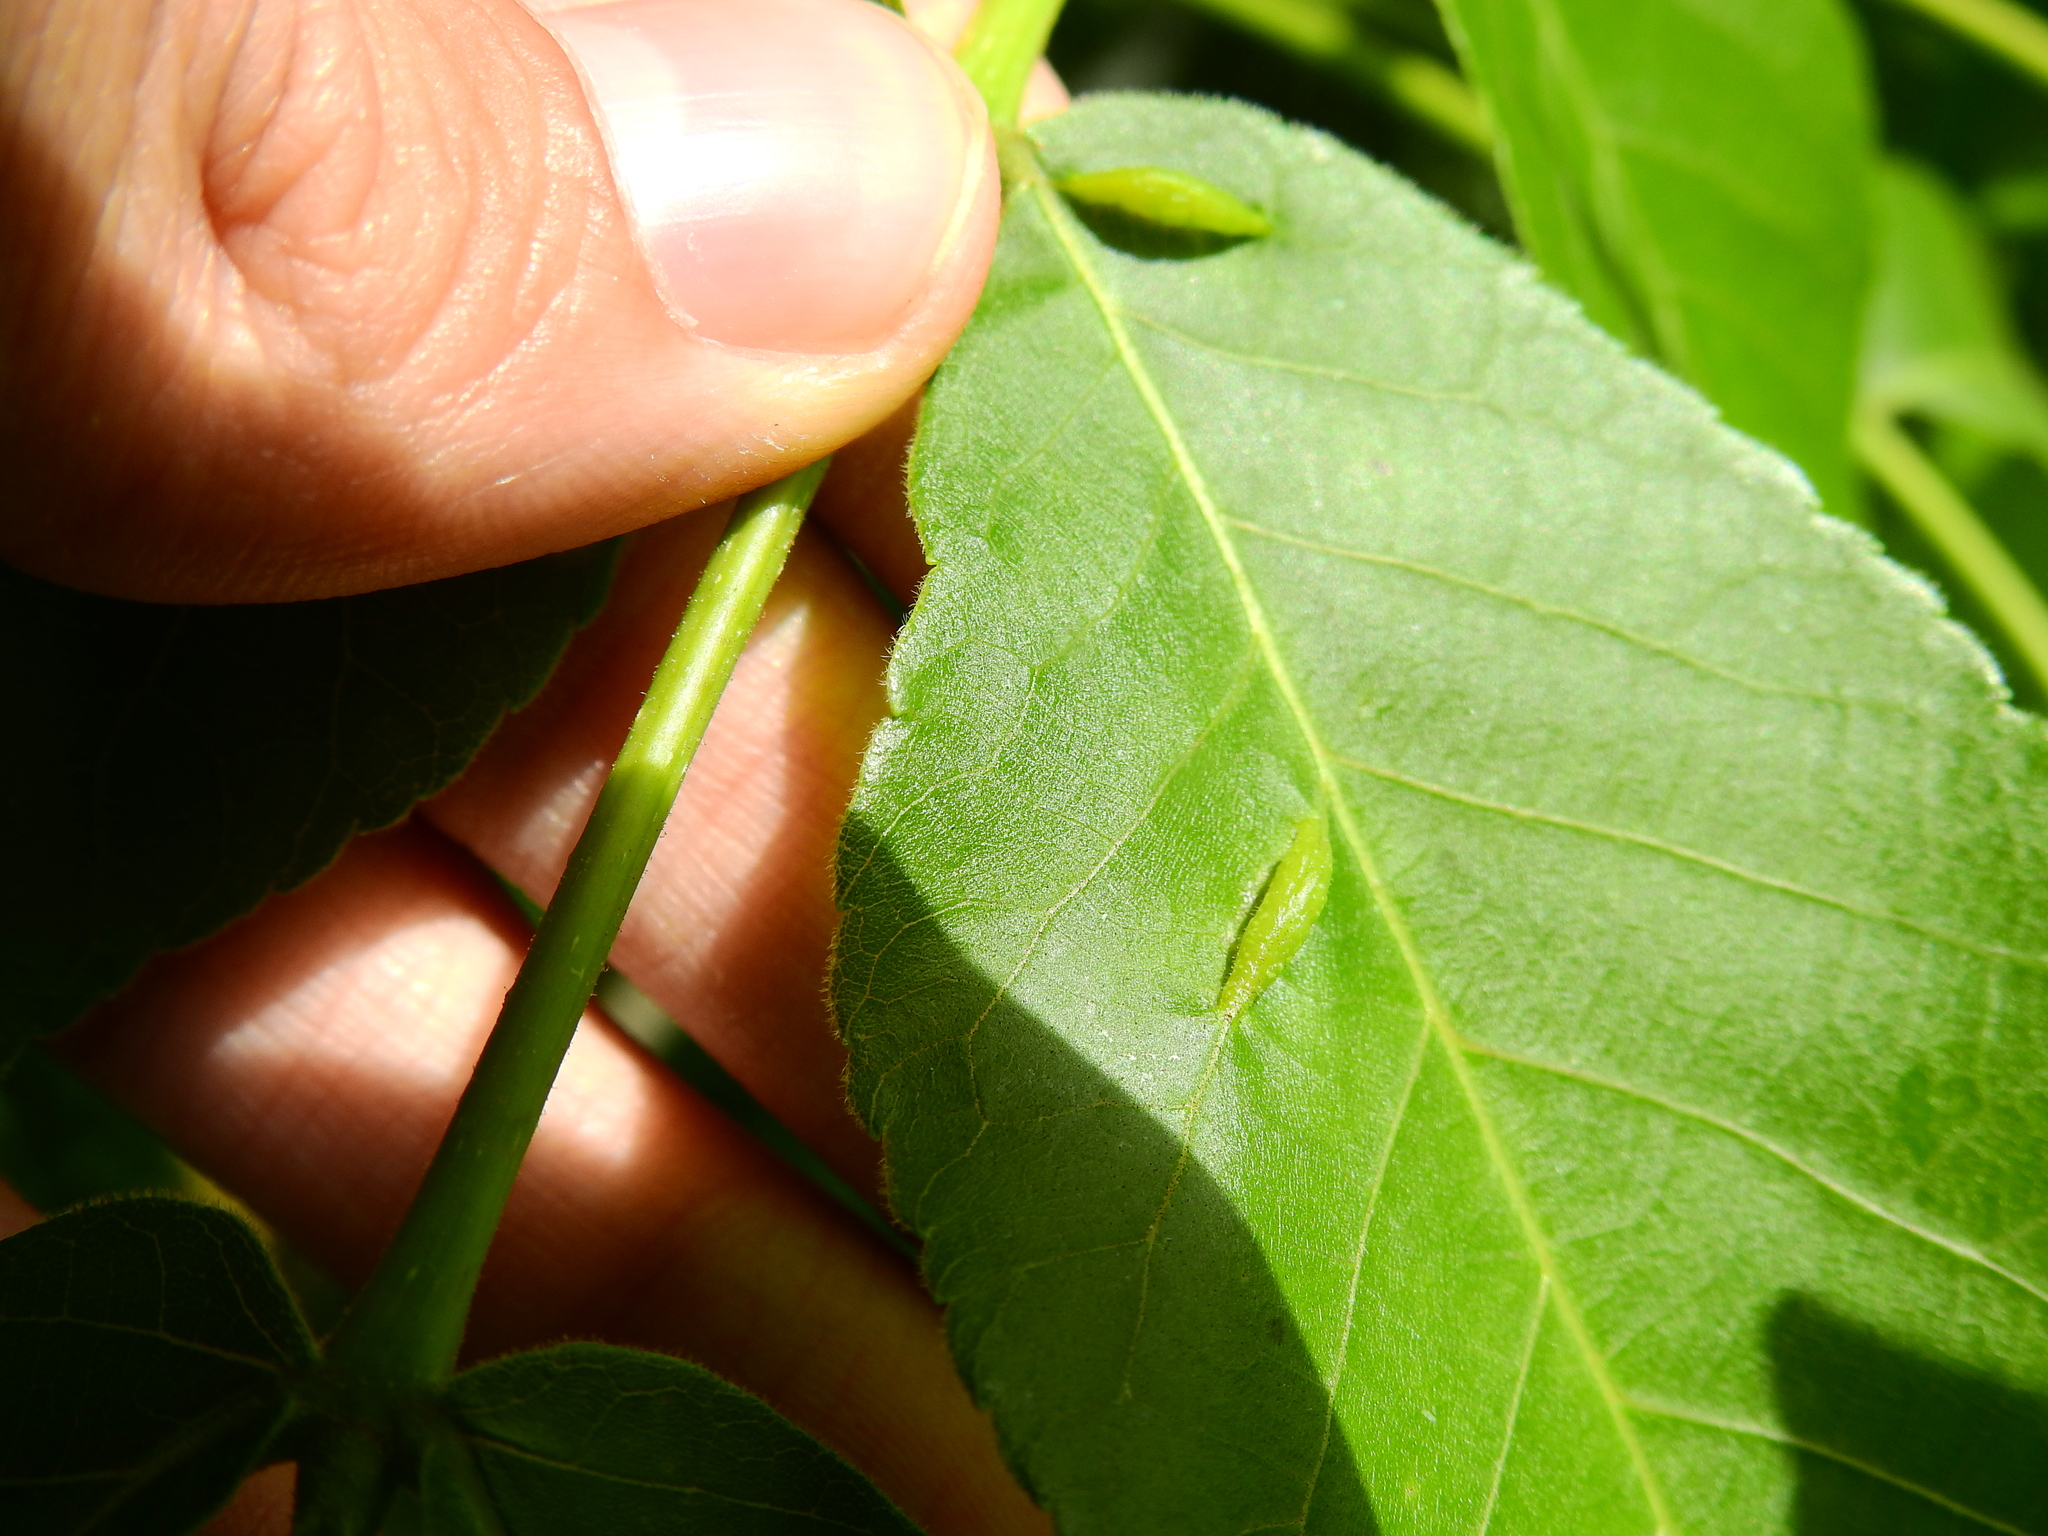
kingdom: Animalia
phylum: Arthropoda
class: Insecta
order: Hemiptera
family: Phylloxeridae
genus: Phylloxera
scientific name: Phylloxera caryaevenae
